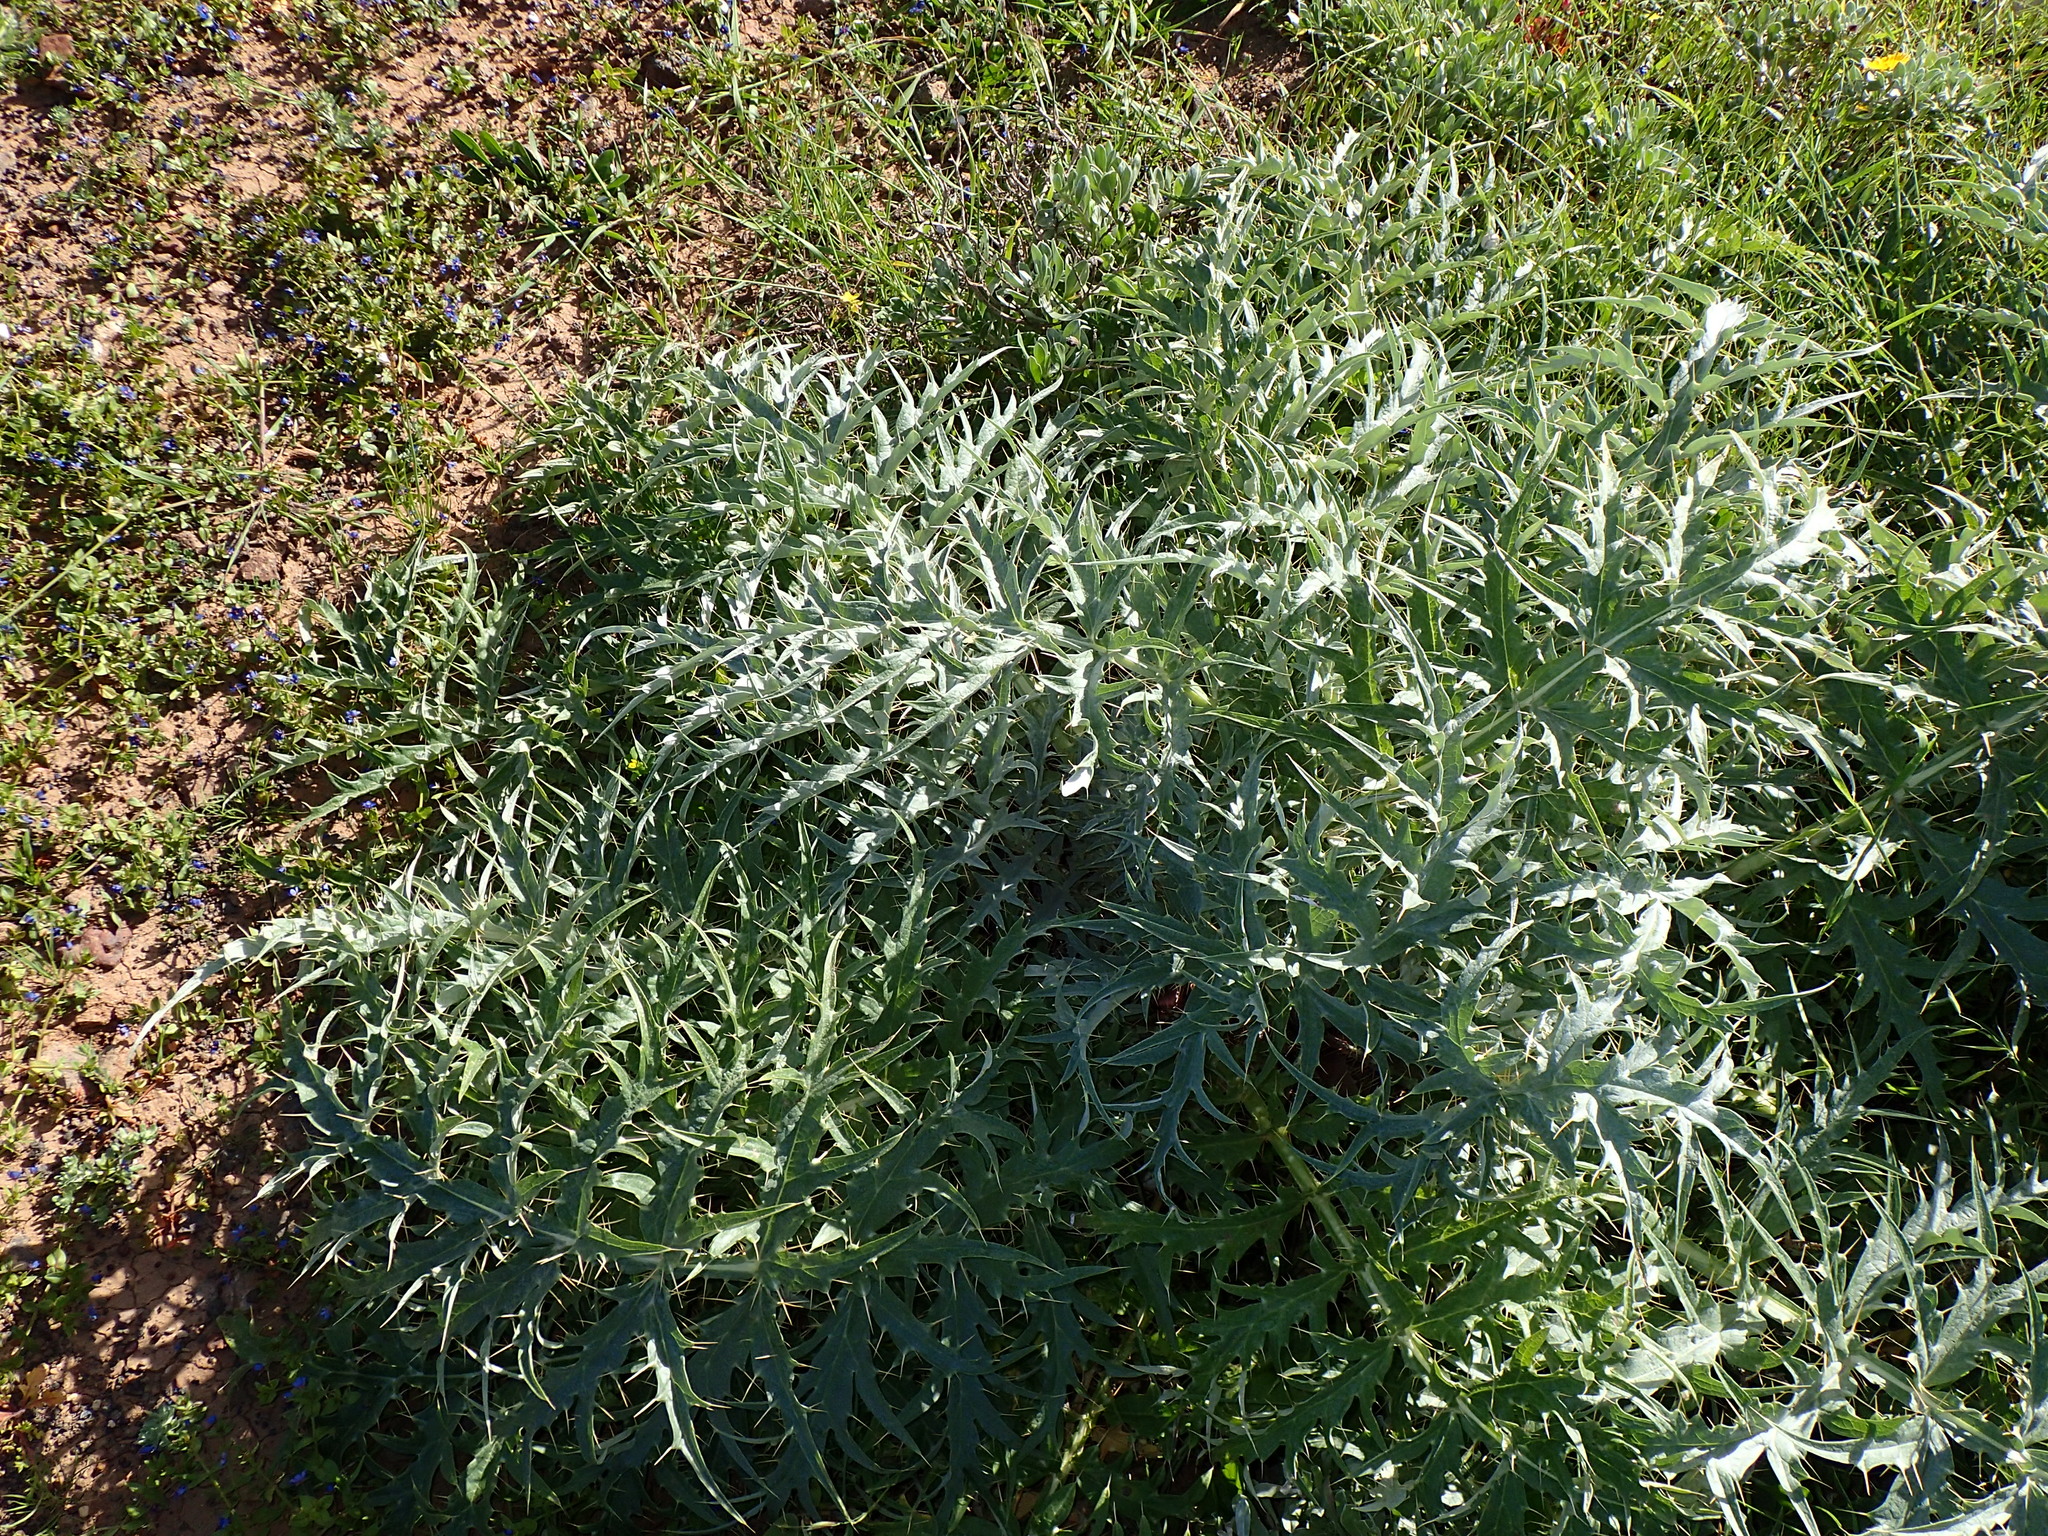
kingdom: Plantae
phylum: Tracheophyta
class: Magnoliopsida
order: Asterales
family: Asteraceae
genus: Cynara
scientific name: Cynara cardunculus
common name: Globe artichoke
